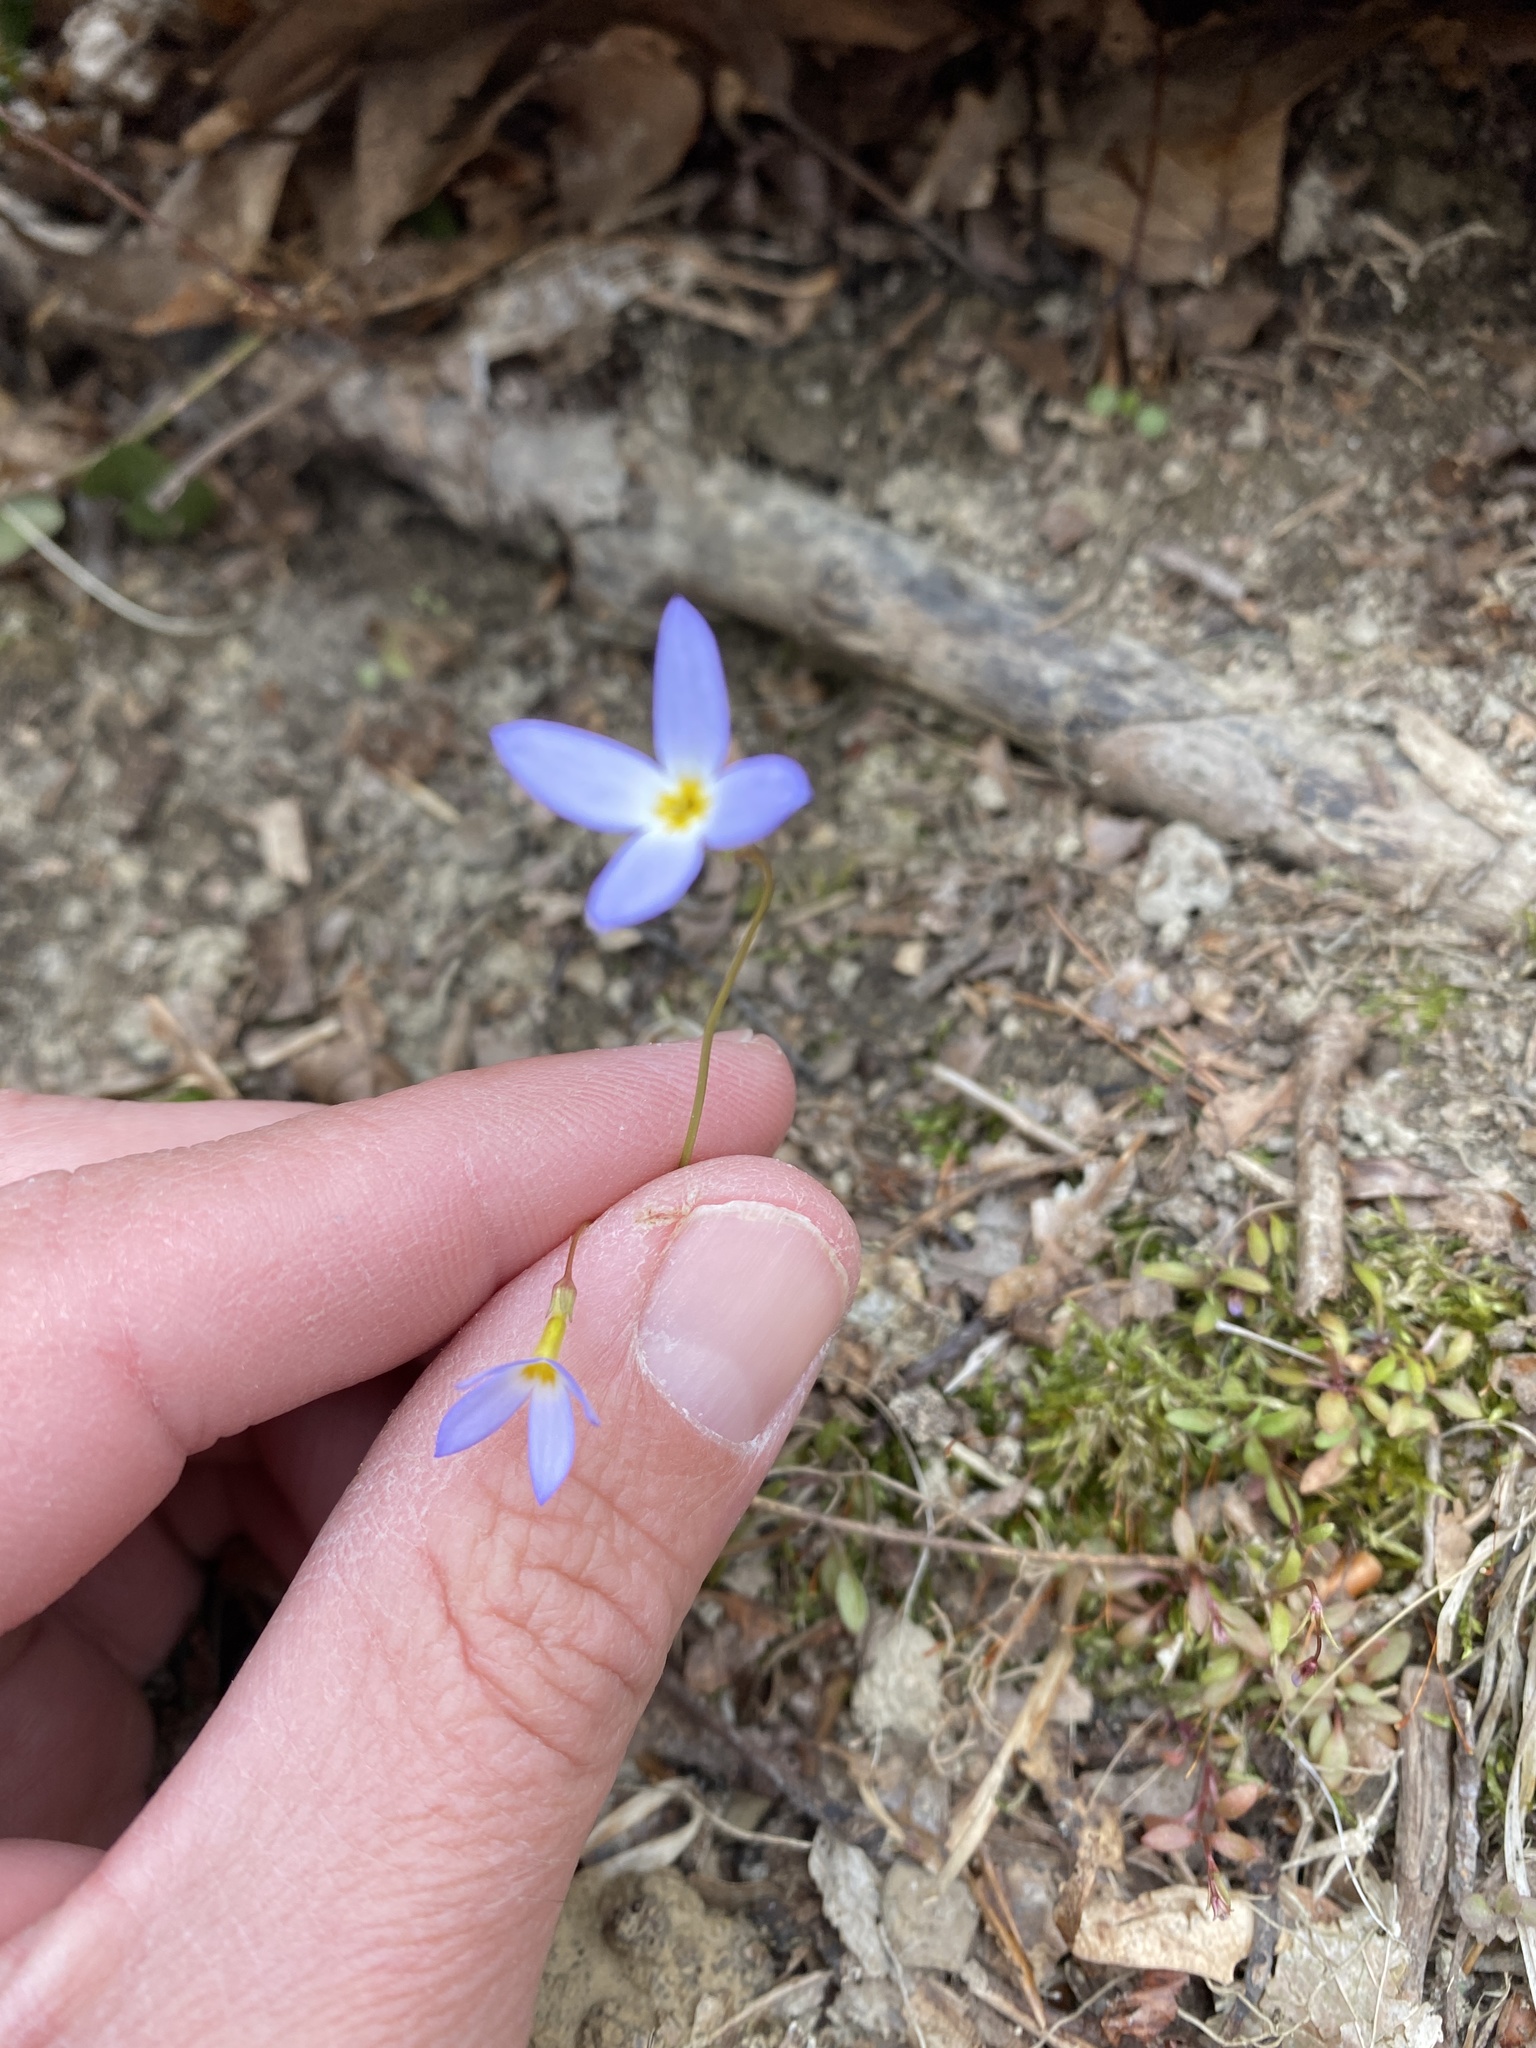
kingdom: Plantae
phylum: Tracheophyta
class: Magnoliopsida
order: Gentianales
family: Rubiaceae
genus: Houstonia
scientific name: Houstonia caerulea
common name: Bluets
